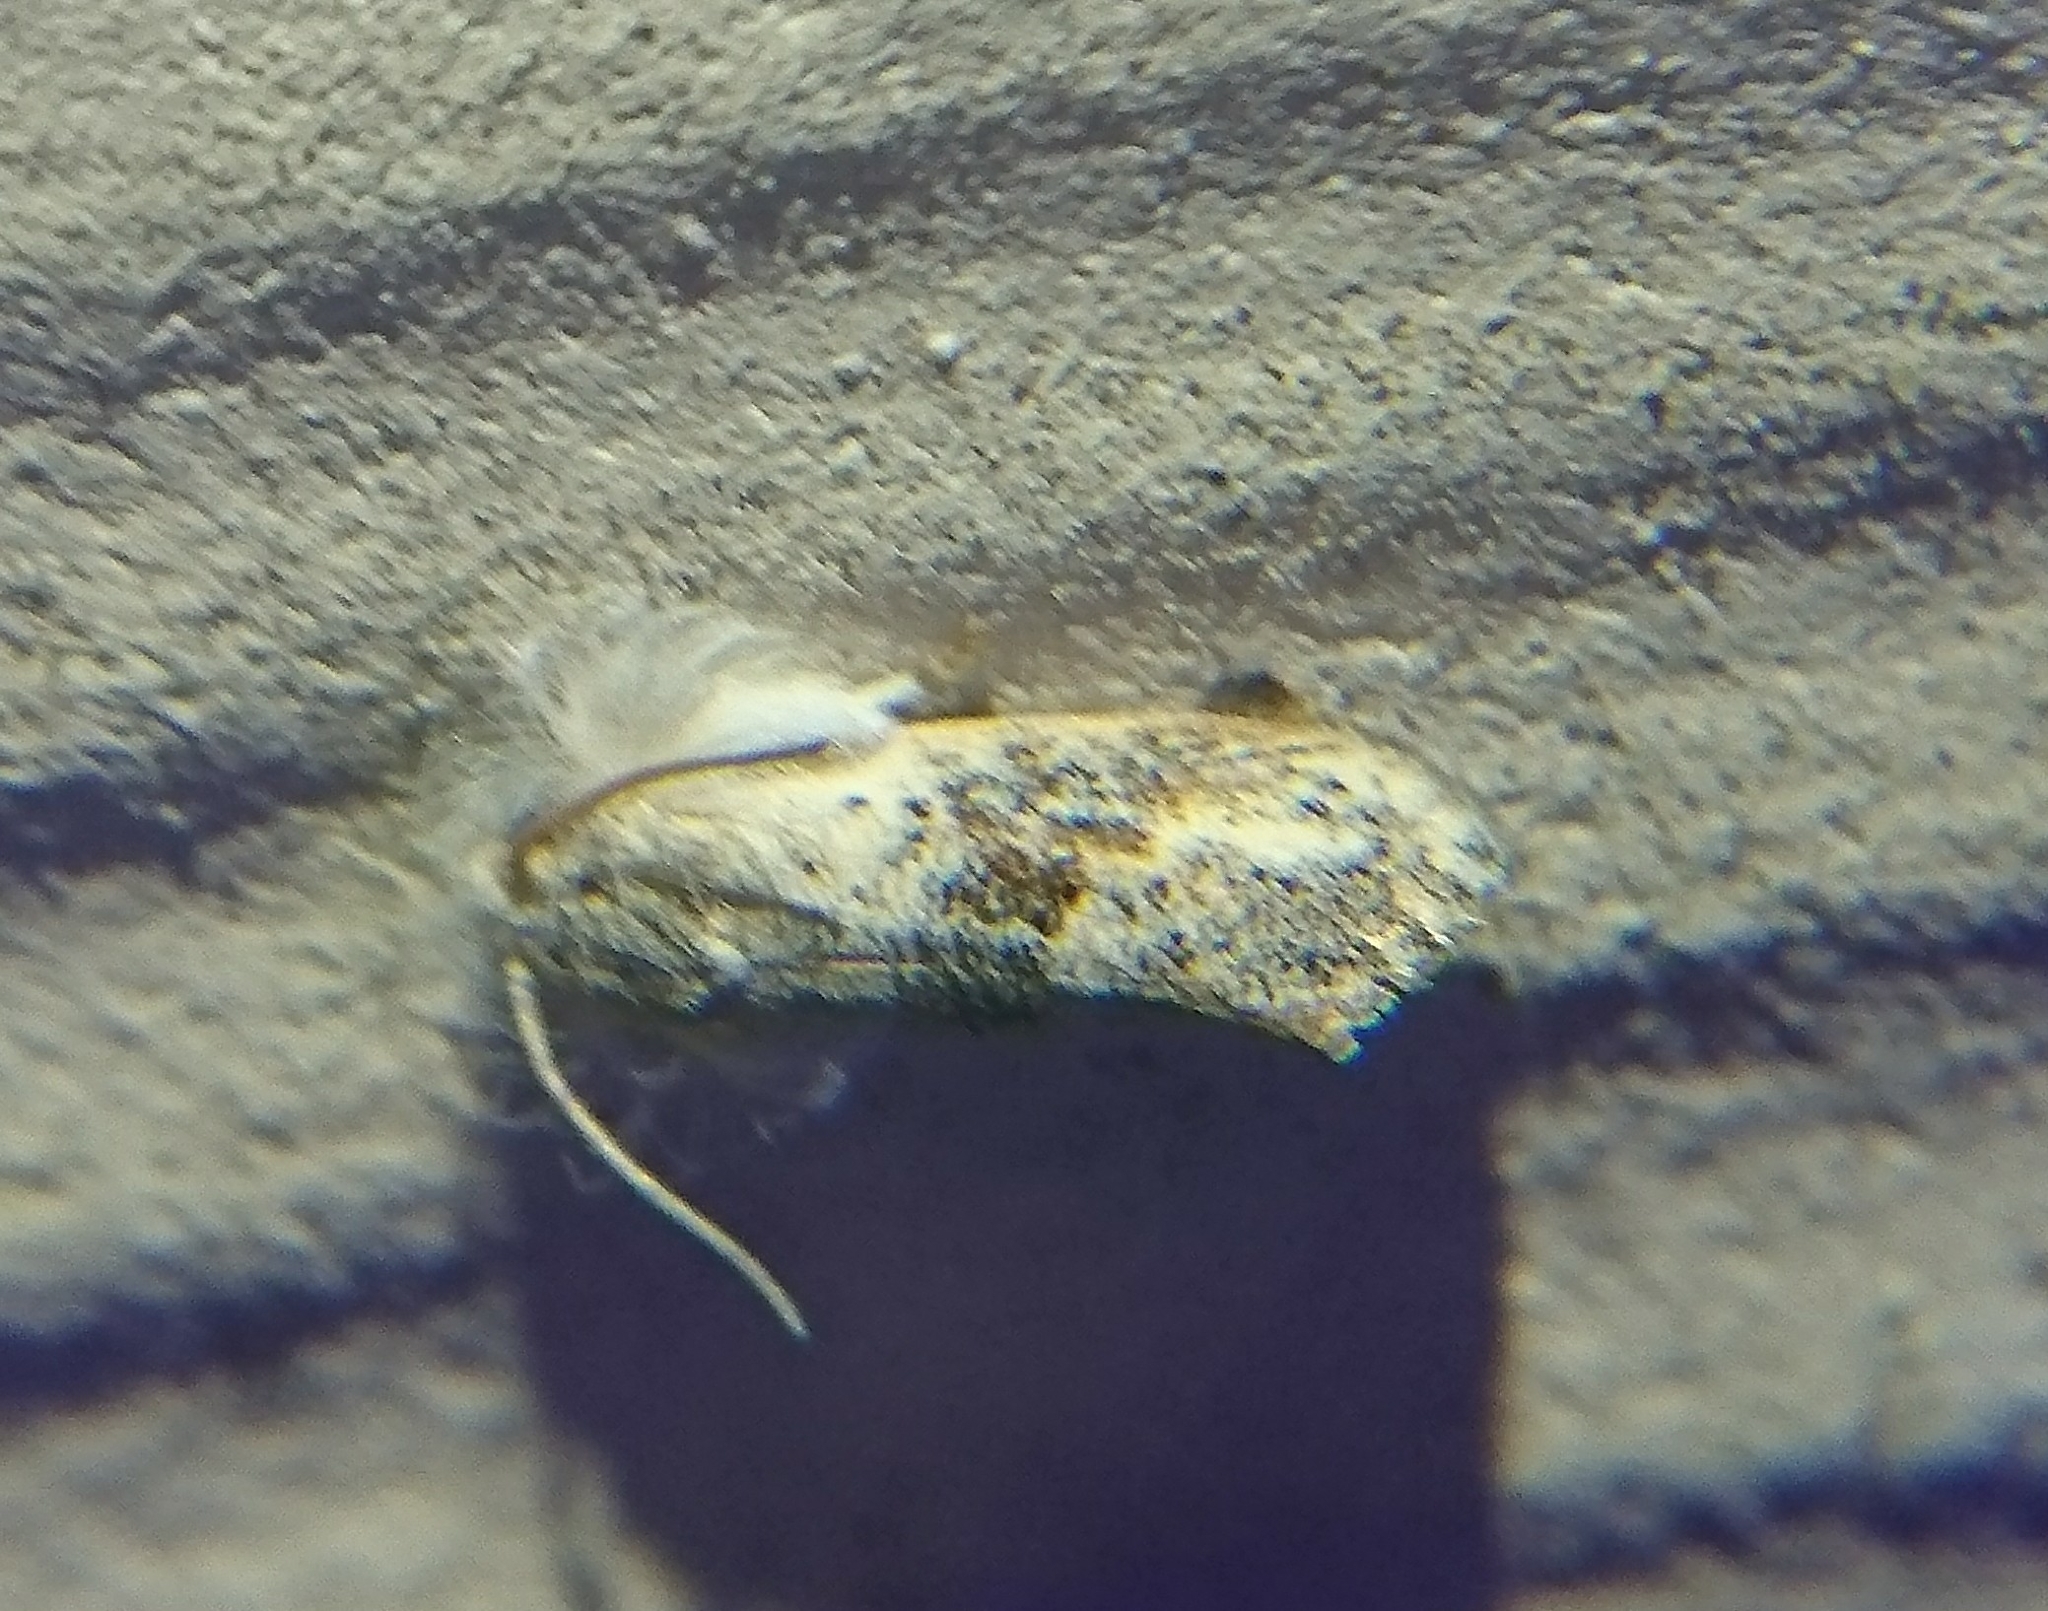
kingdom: Animalia
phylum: Arthropoda
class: Insecta
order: Lepidoptera
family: Tineidae
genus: Acrolophus
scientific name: Acrolophus mycetophagus
